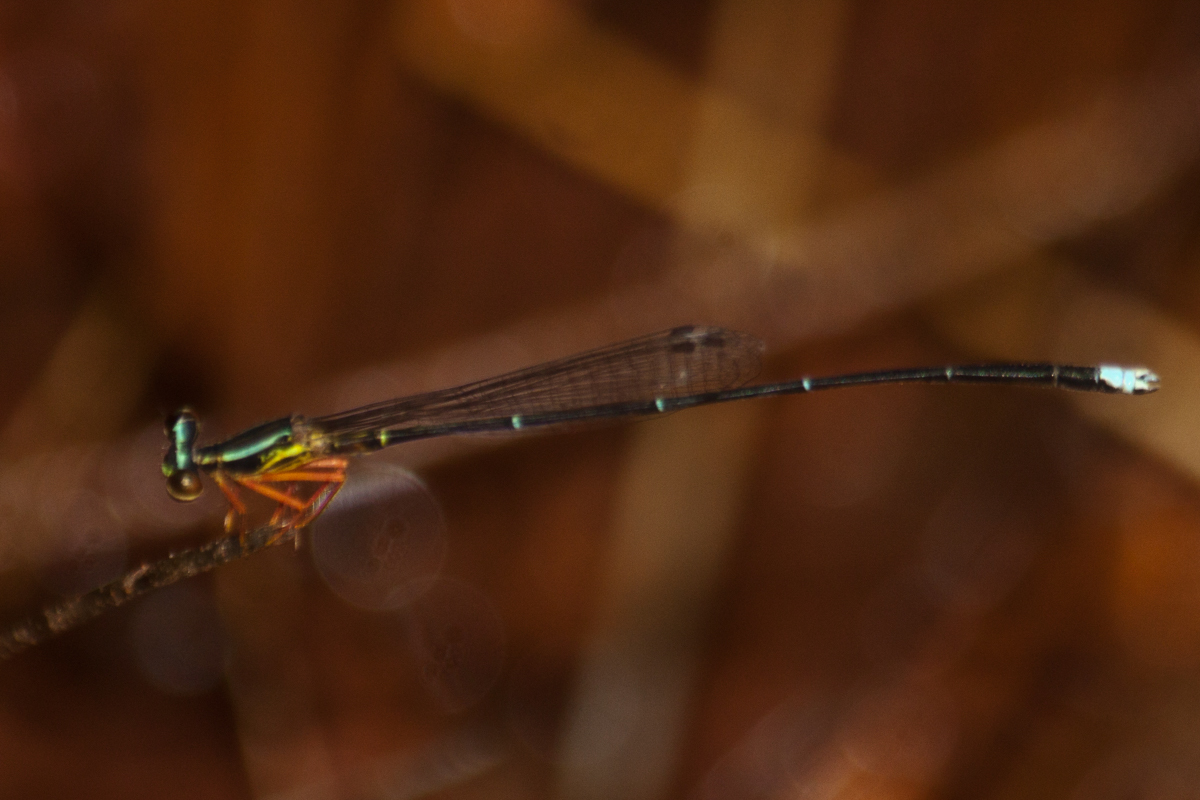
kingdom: Animalia
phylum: Arthropoda
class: Insecta
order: Odonata
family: Platycnemididae
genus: Copera
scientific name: Copera vittata
